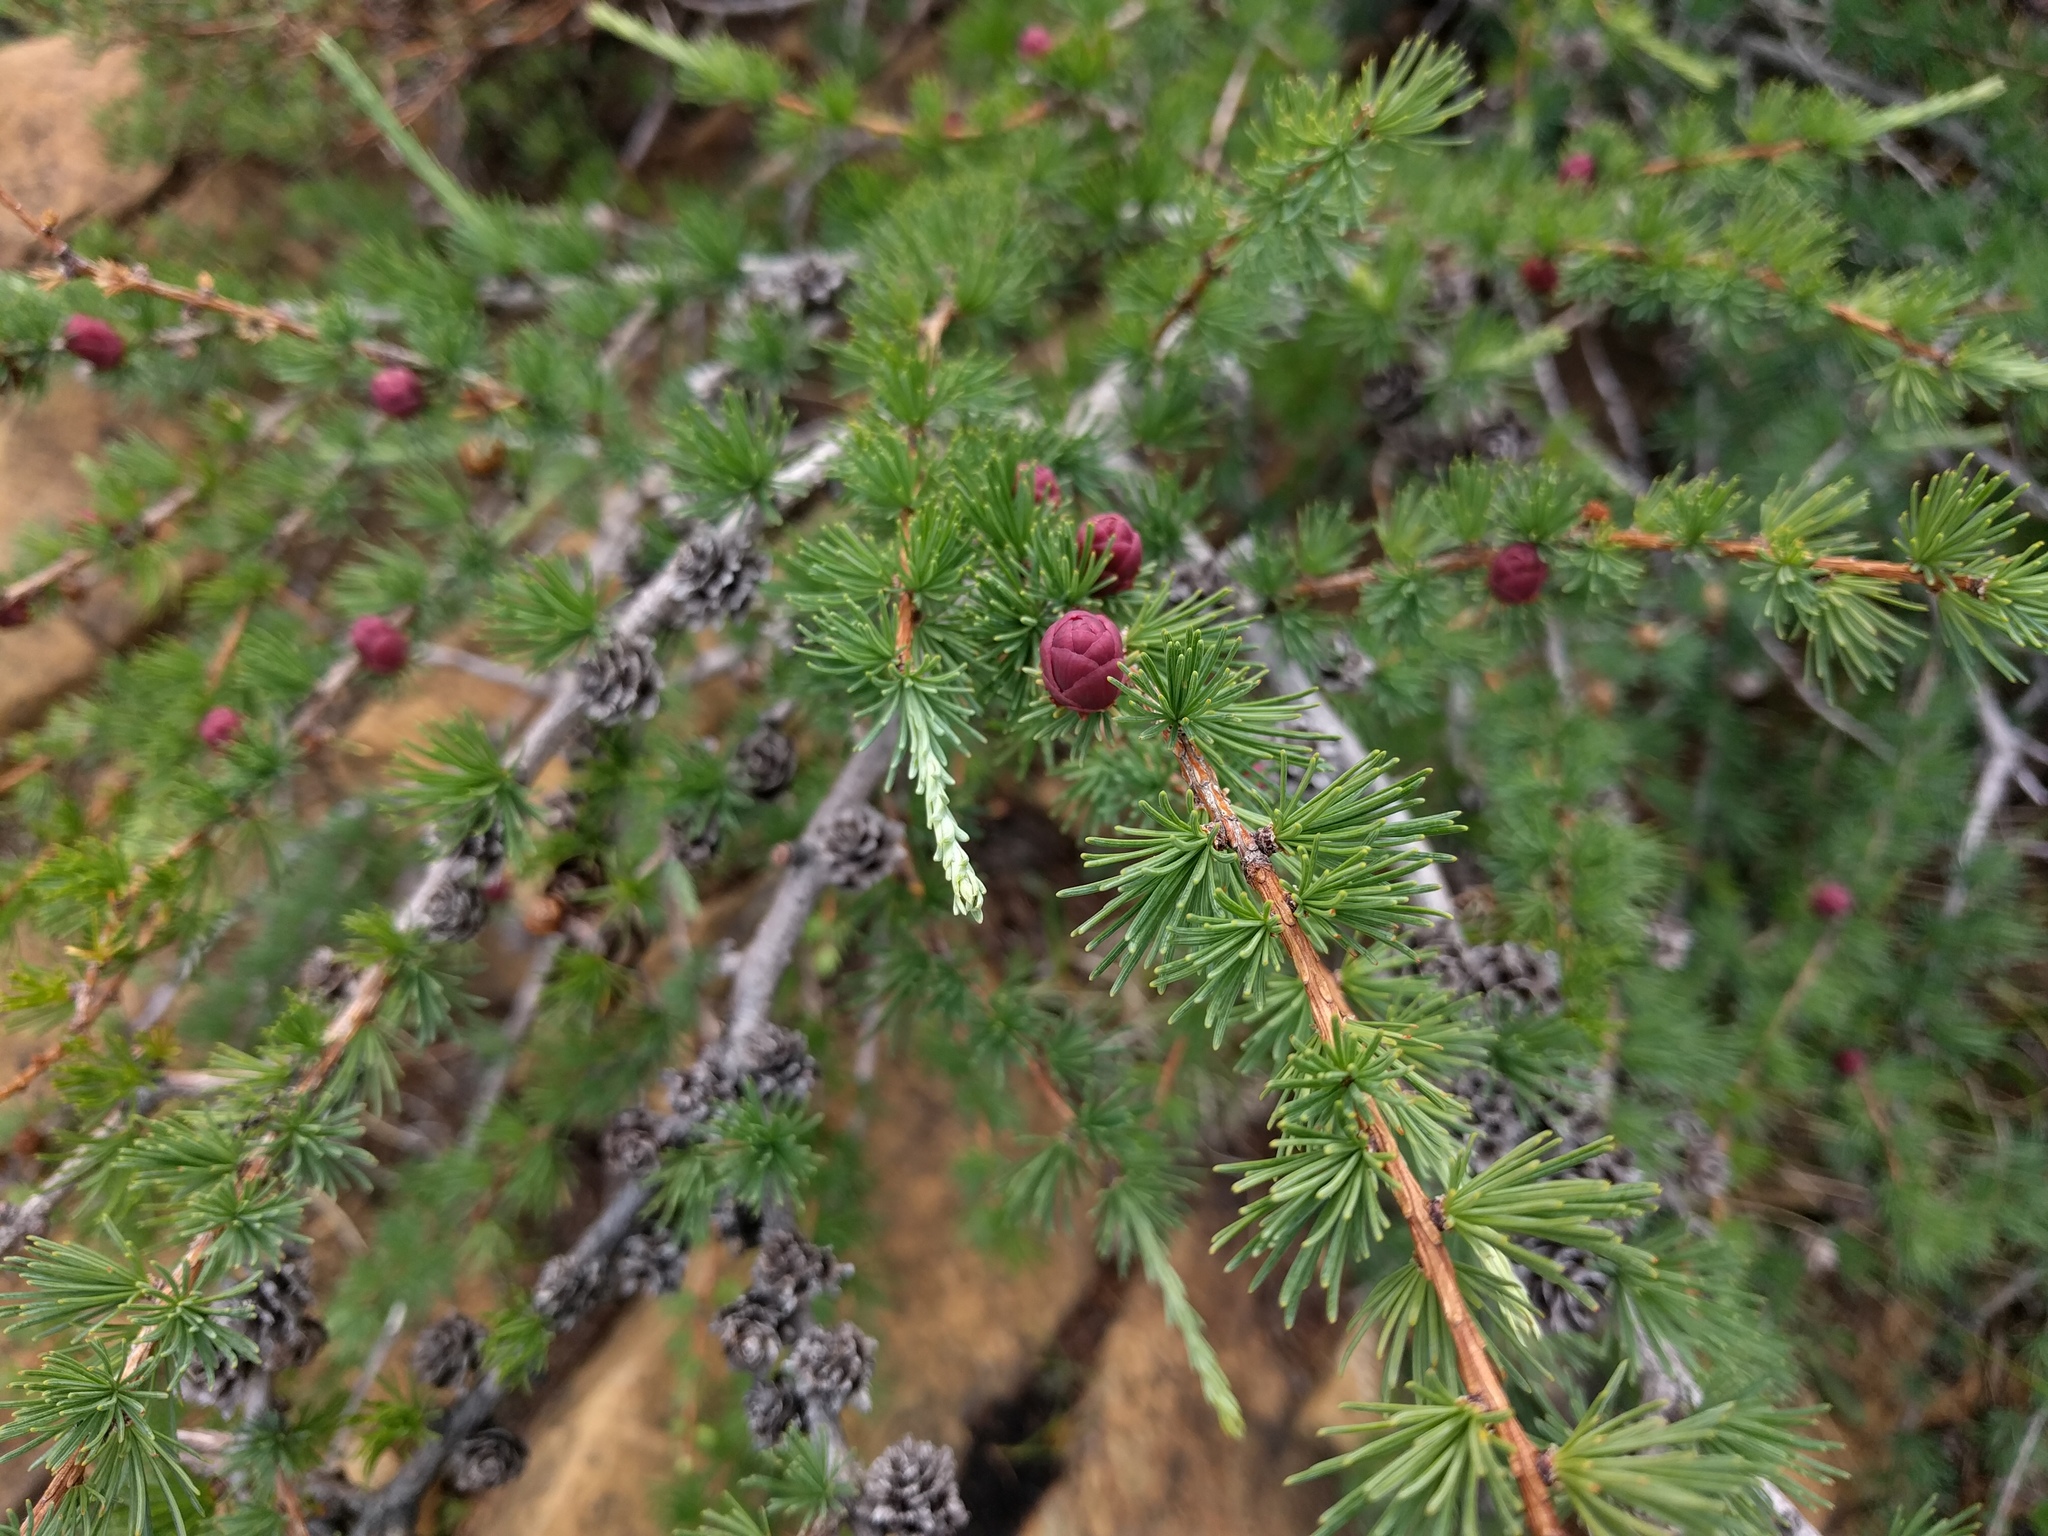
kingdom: Plantae
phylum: Tracheophyta
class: Pinopsida
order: Pinales
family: Pinaceae
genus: Larix
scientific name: Larix laricina
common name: American larch
